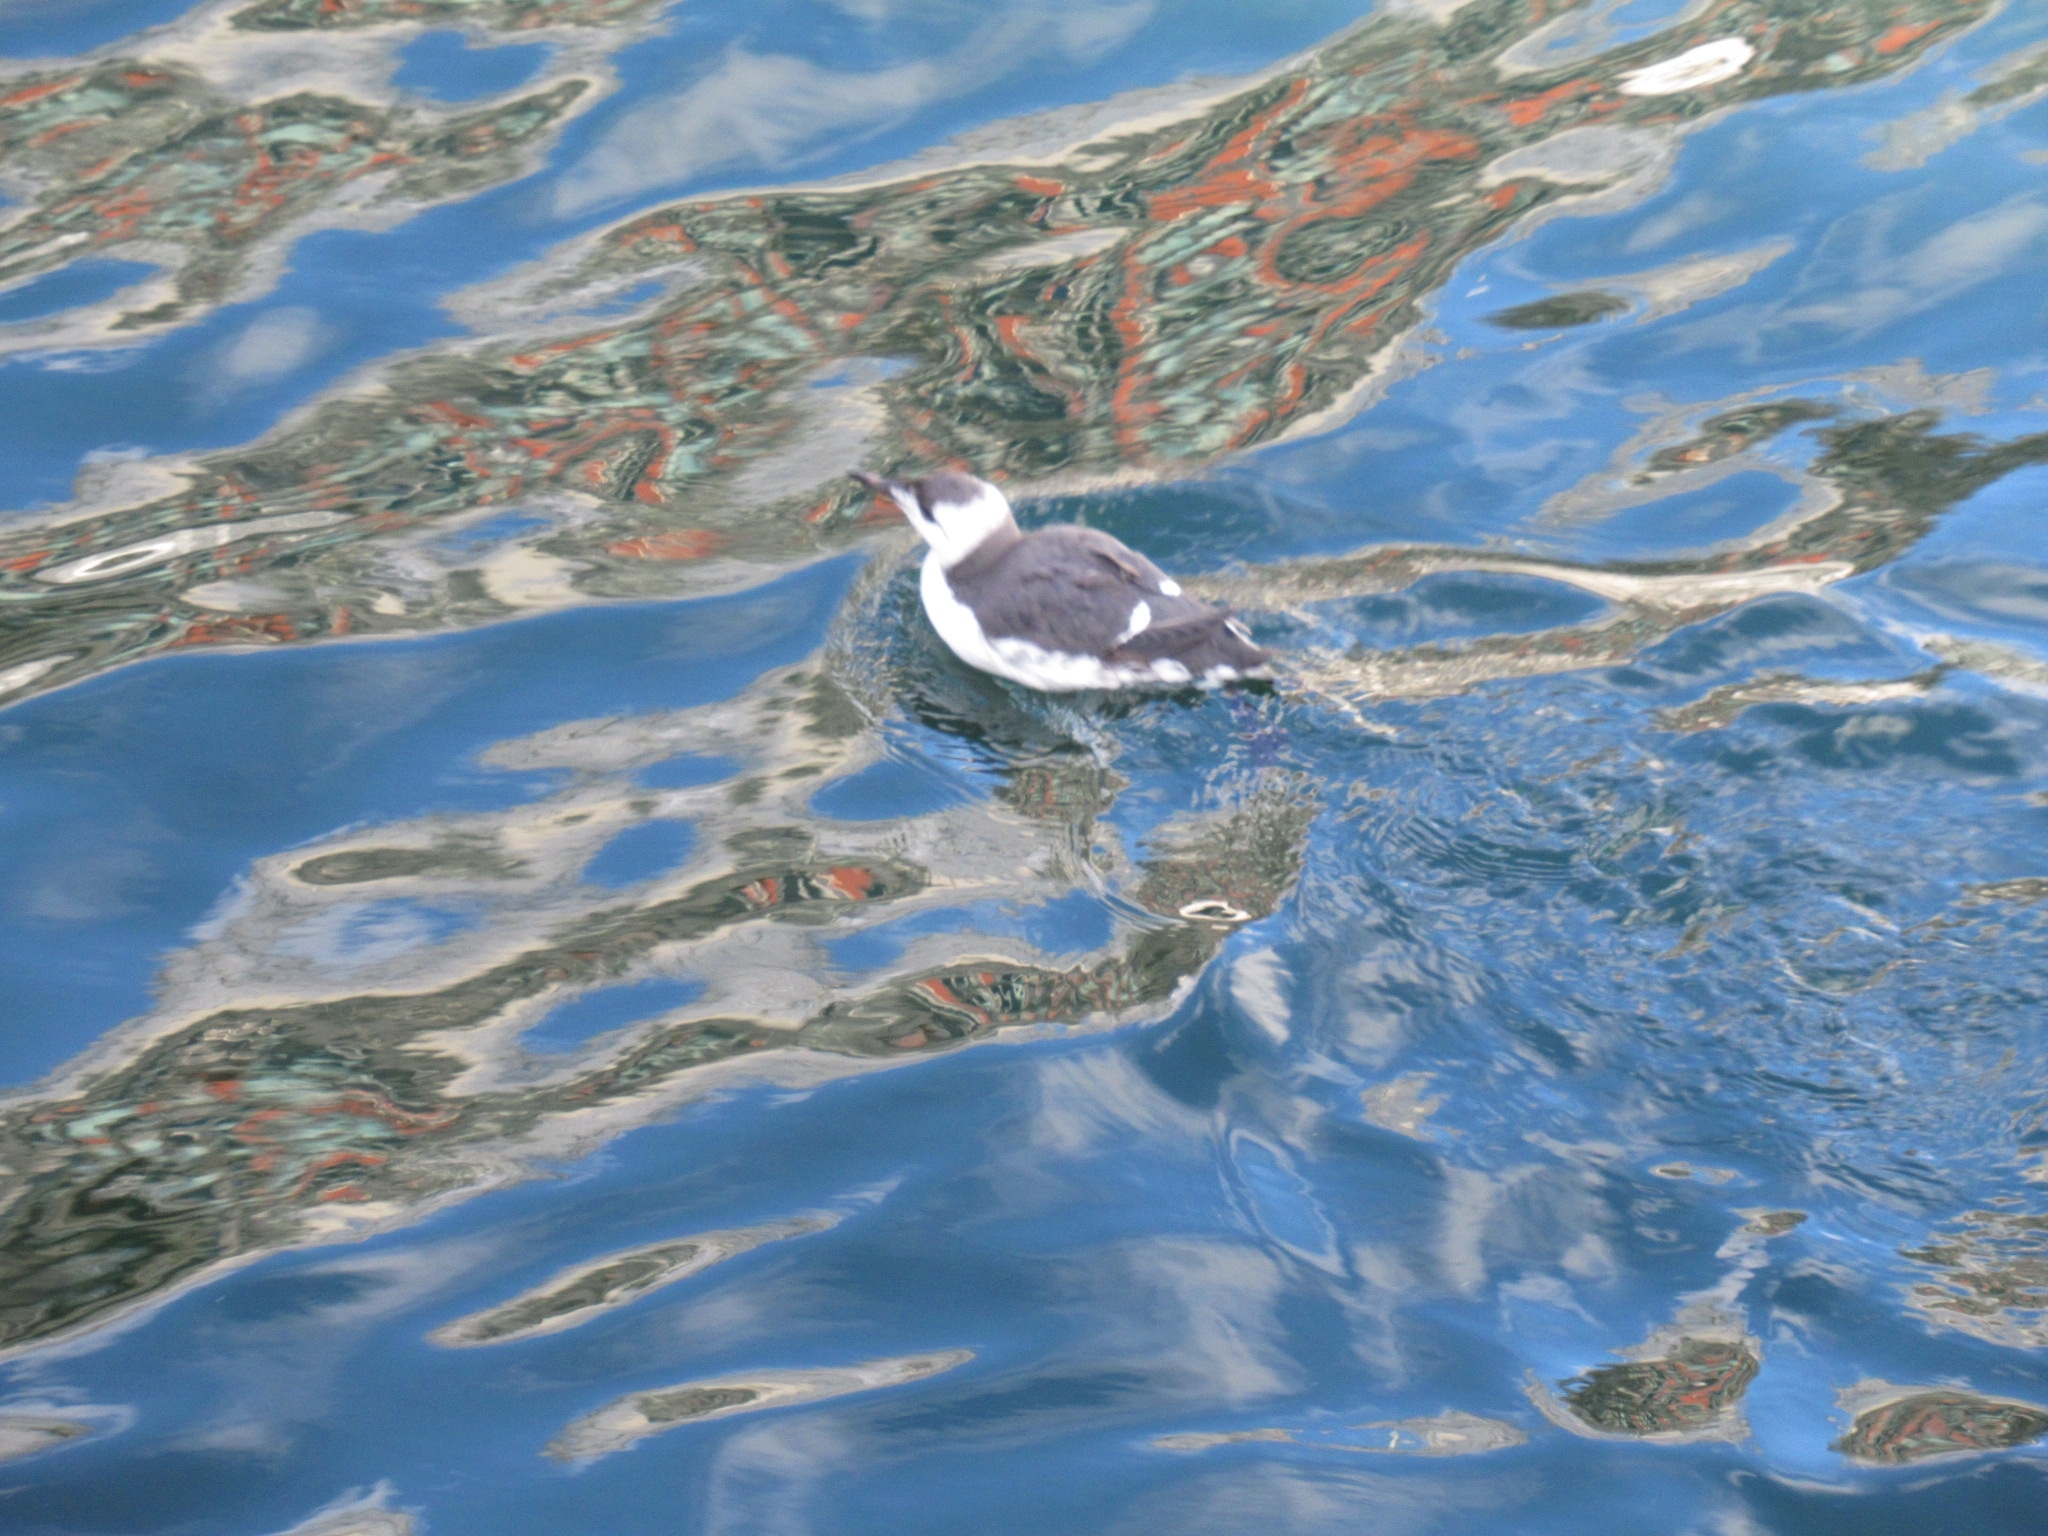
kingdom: Animalia
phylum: Chordata
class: Aves
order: Charadriiformes
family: Alcidae
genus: Uria
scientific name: Uria aalge
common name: Common murre
